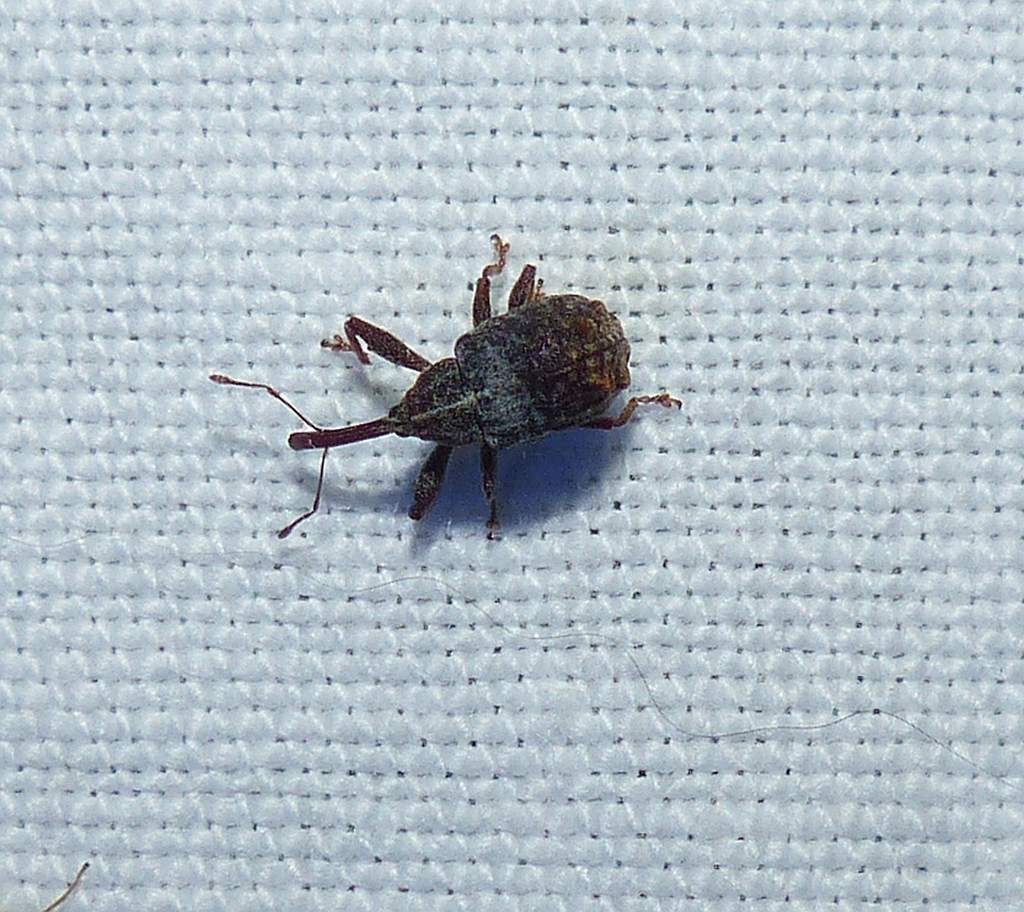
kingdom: Animalia
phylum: Arthropoda
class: Insecta
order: Coleoptera
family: Curculionidae
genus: Anthonomus
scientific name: Anthonomus quadrigibbus
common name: Apple curculio
